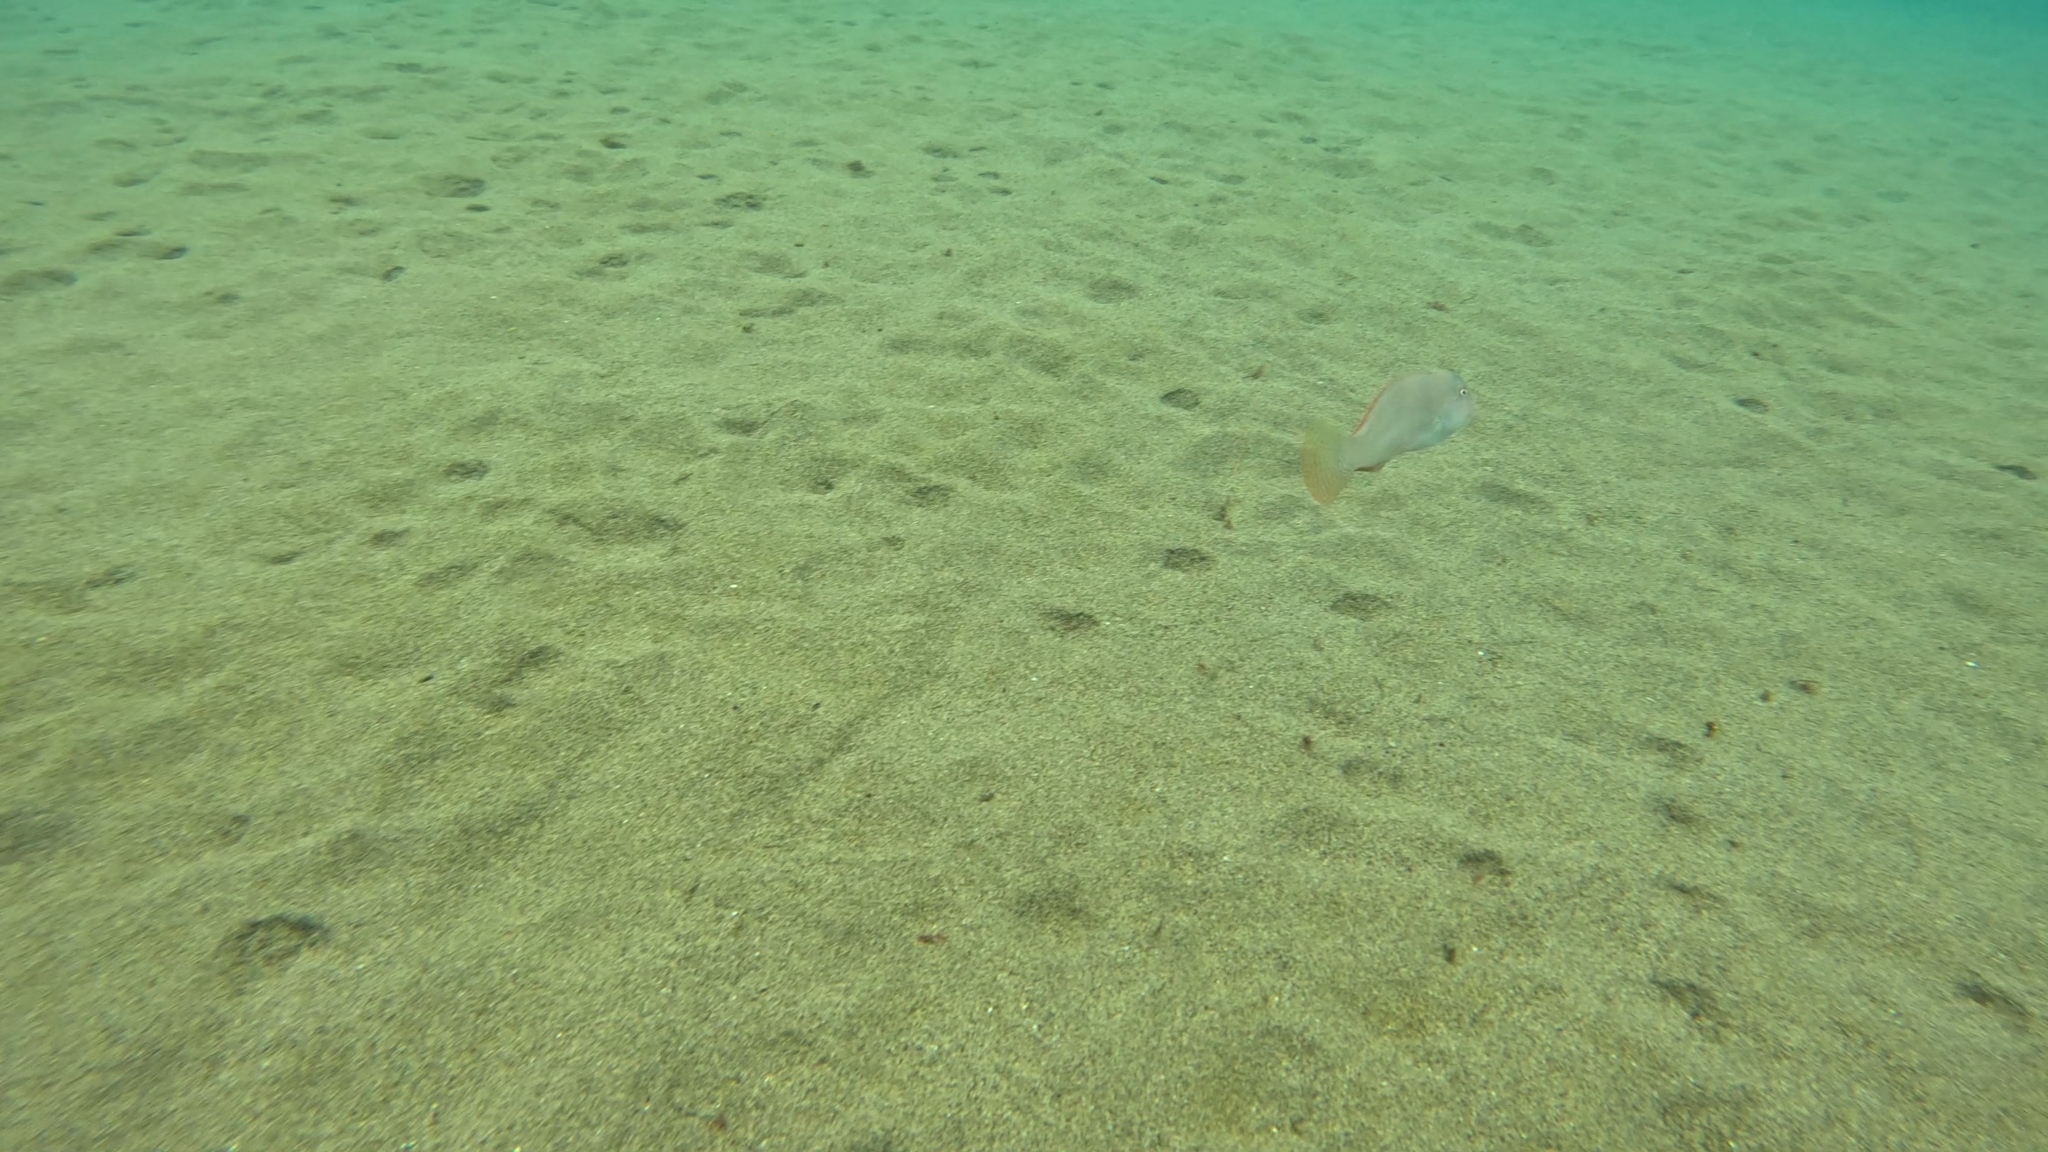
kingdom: Animalia
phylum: Chordata
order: Perciformes
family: Labridae
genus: Xyrichtys
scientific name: Xyrichtys novacula
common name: Pearly razorfish
